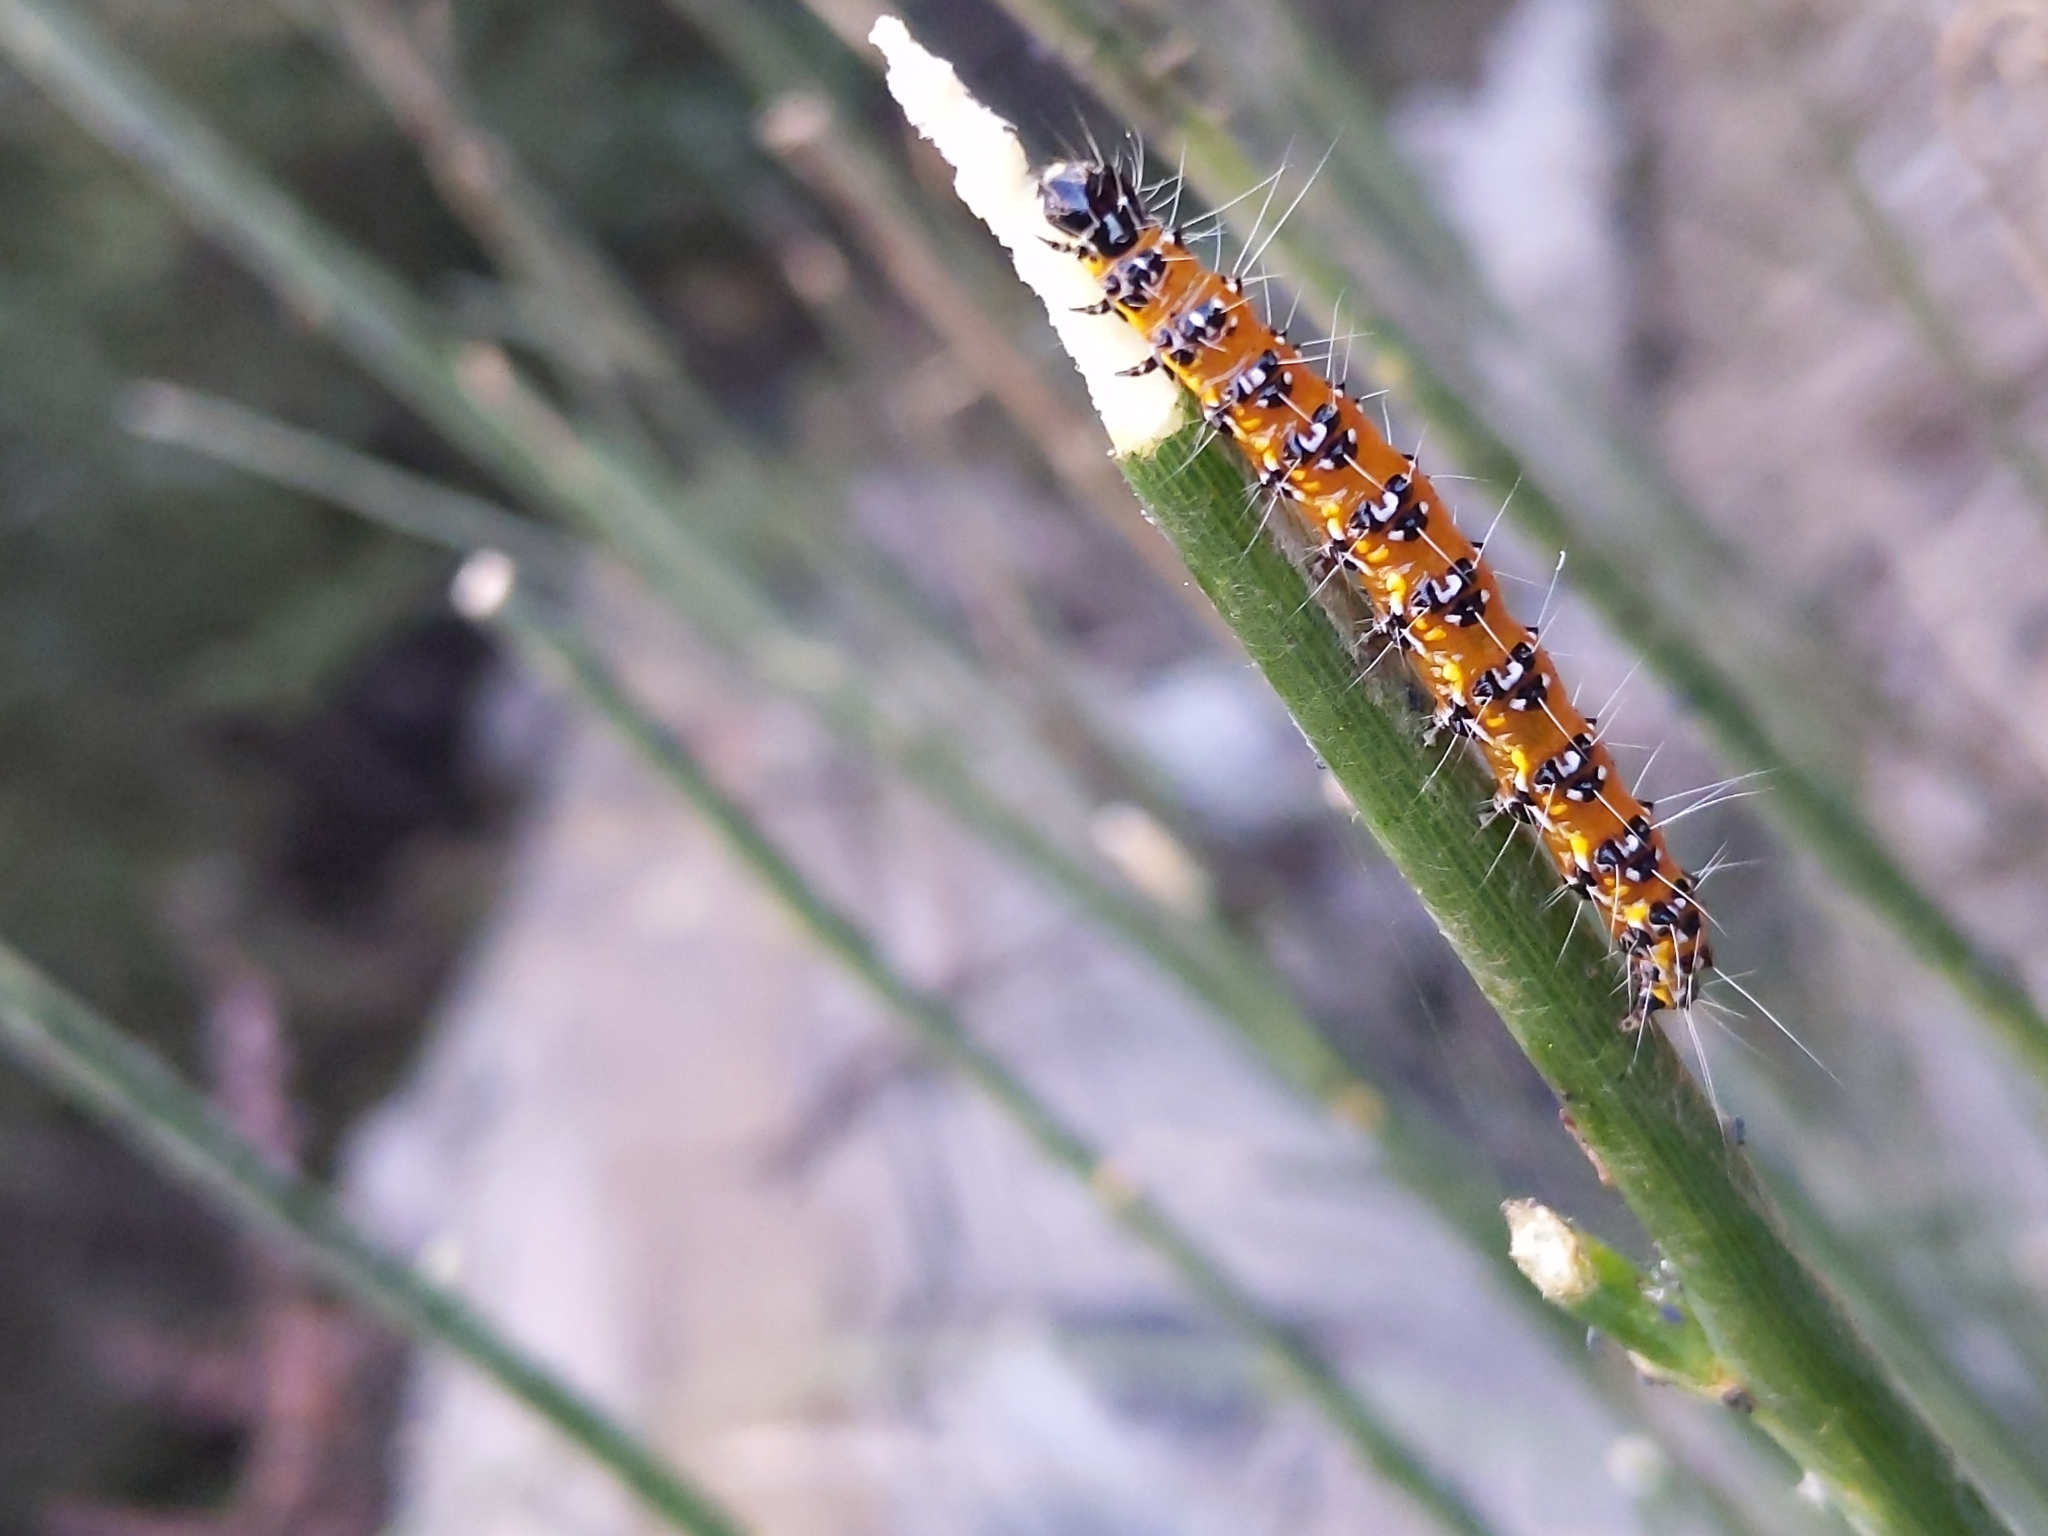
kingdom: Animalia
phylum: Arthropoda
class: Insecta
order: Lepidoptera
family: Crambidae
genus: Uresiphita
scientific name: Uresiphita reversalis
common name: Genista broom moth
